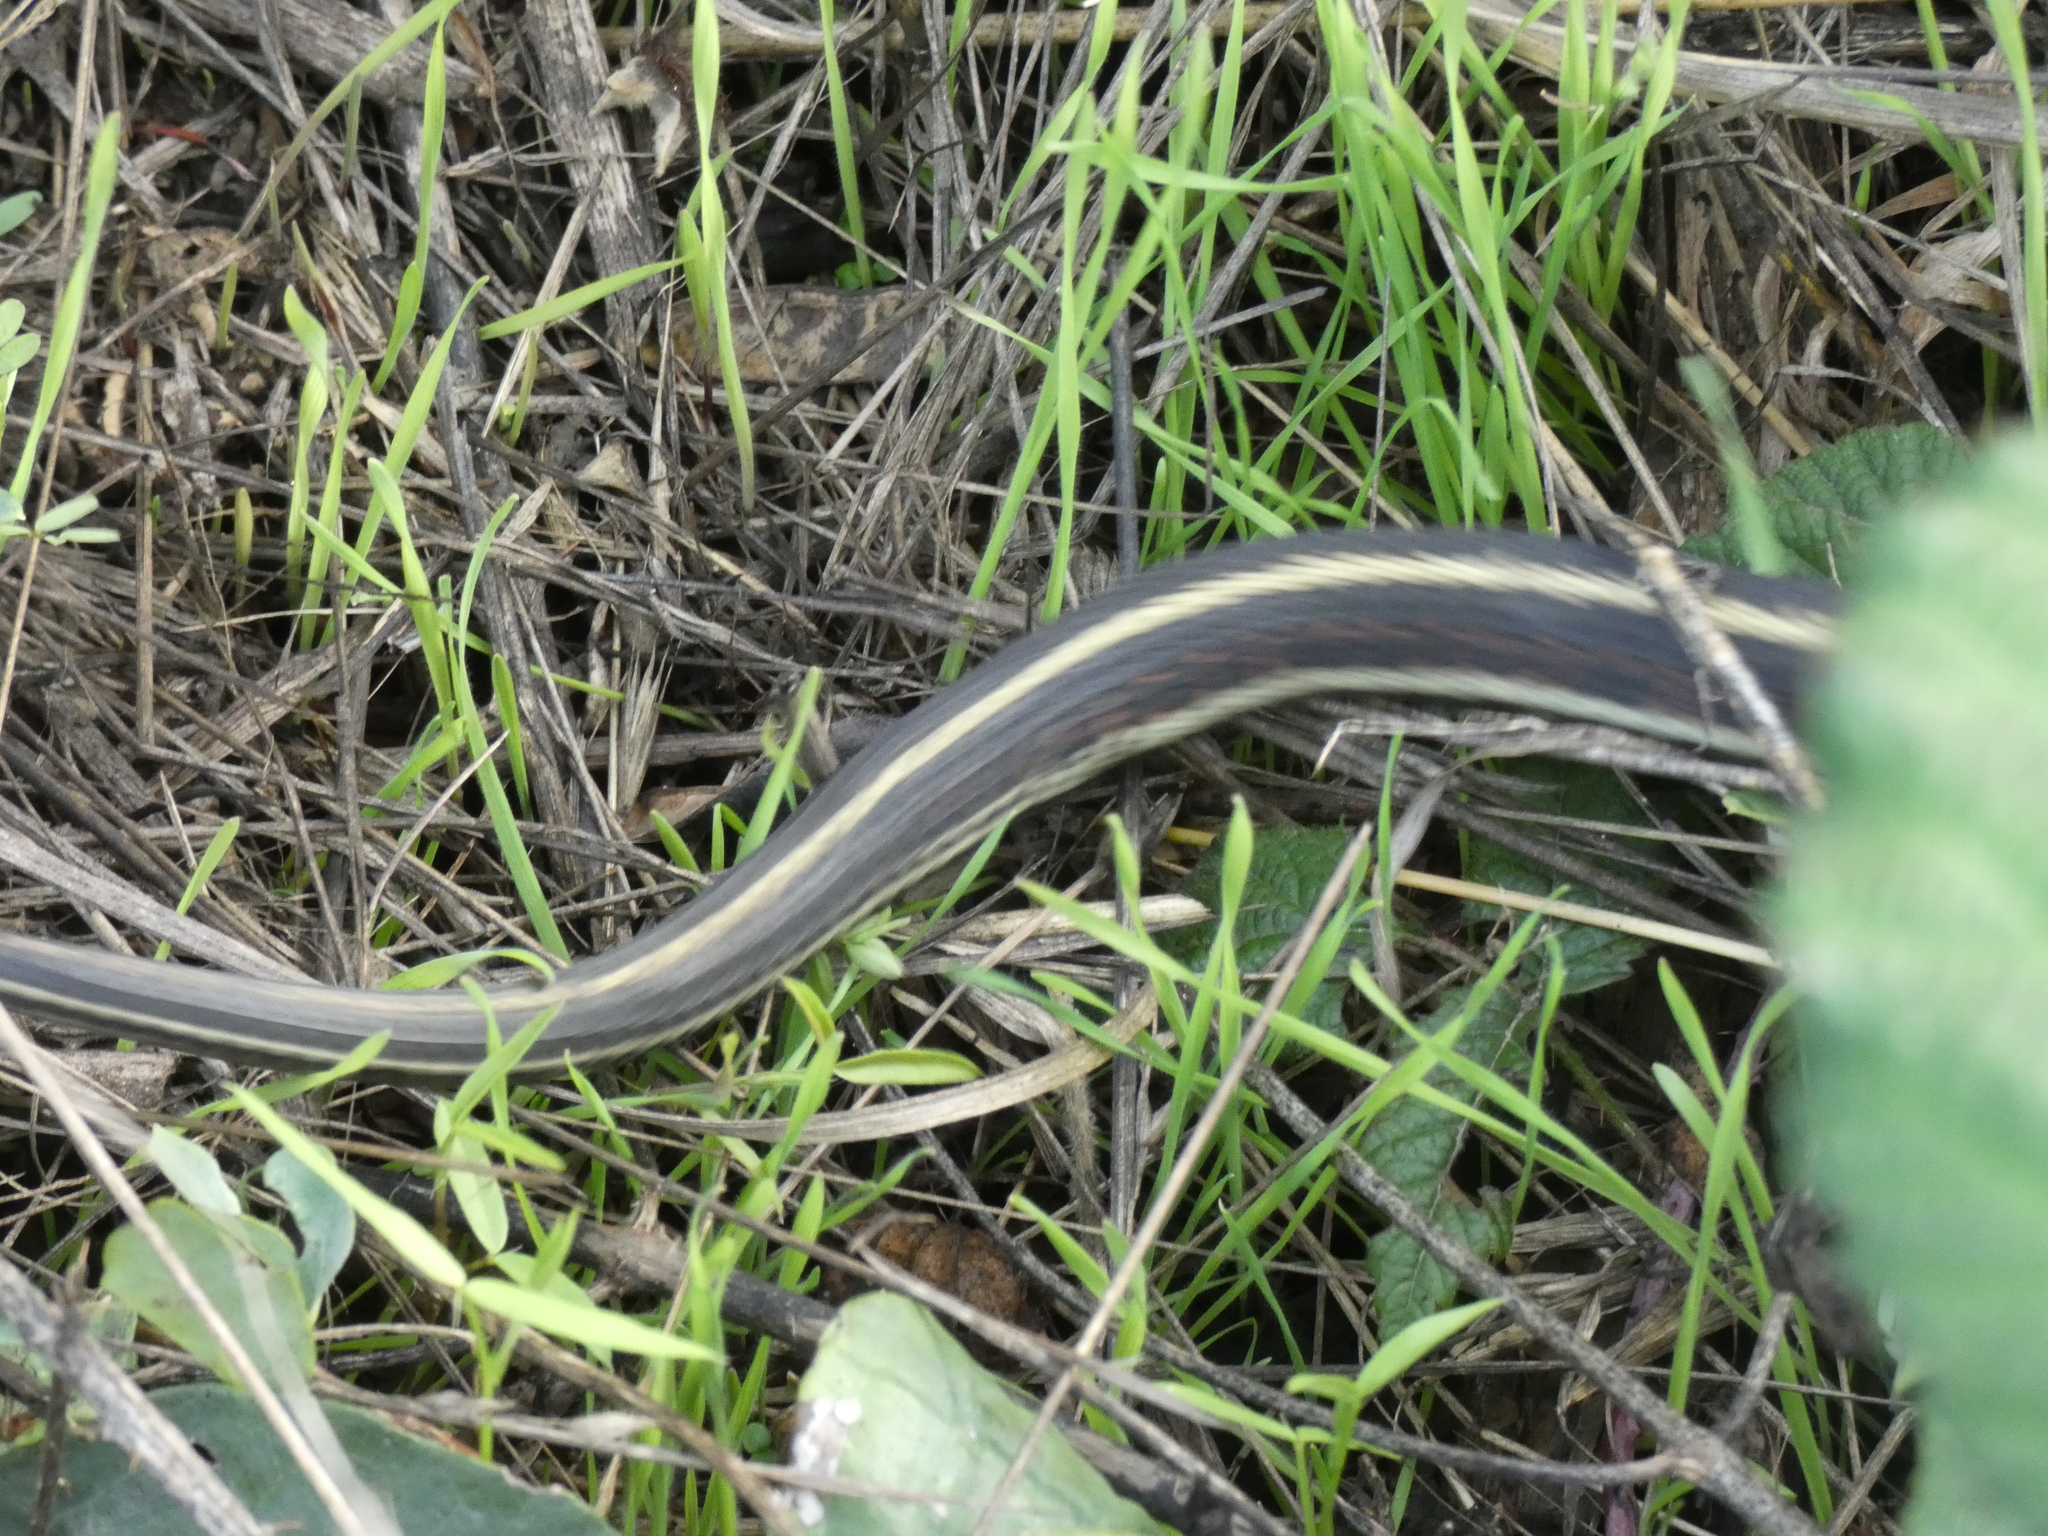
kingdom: Animalia
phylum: Chordata
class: Squamata
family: Colubridae
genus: Thamnophis
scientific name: Thamnophis sirtalis
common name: Common garter snake
